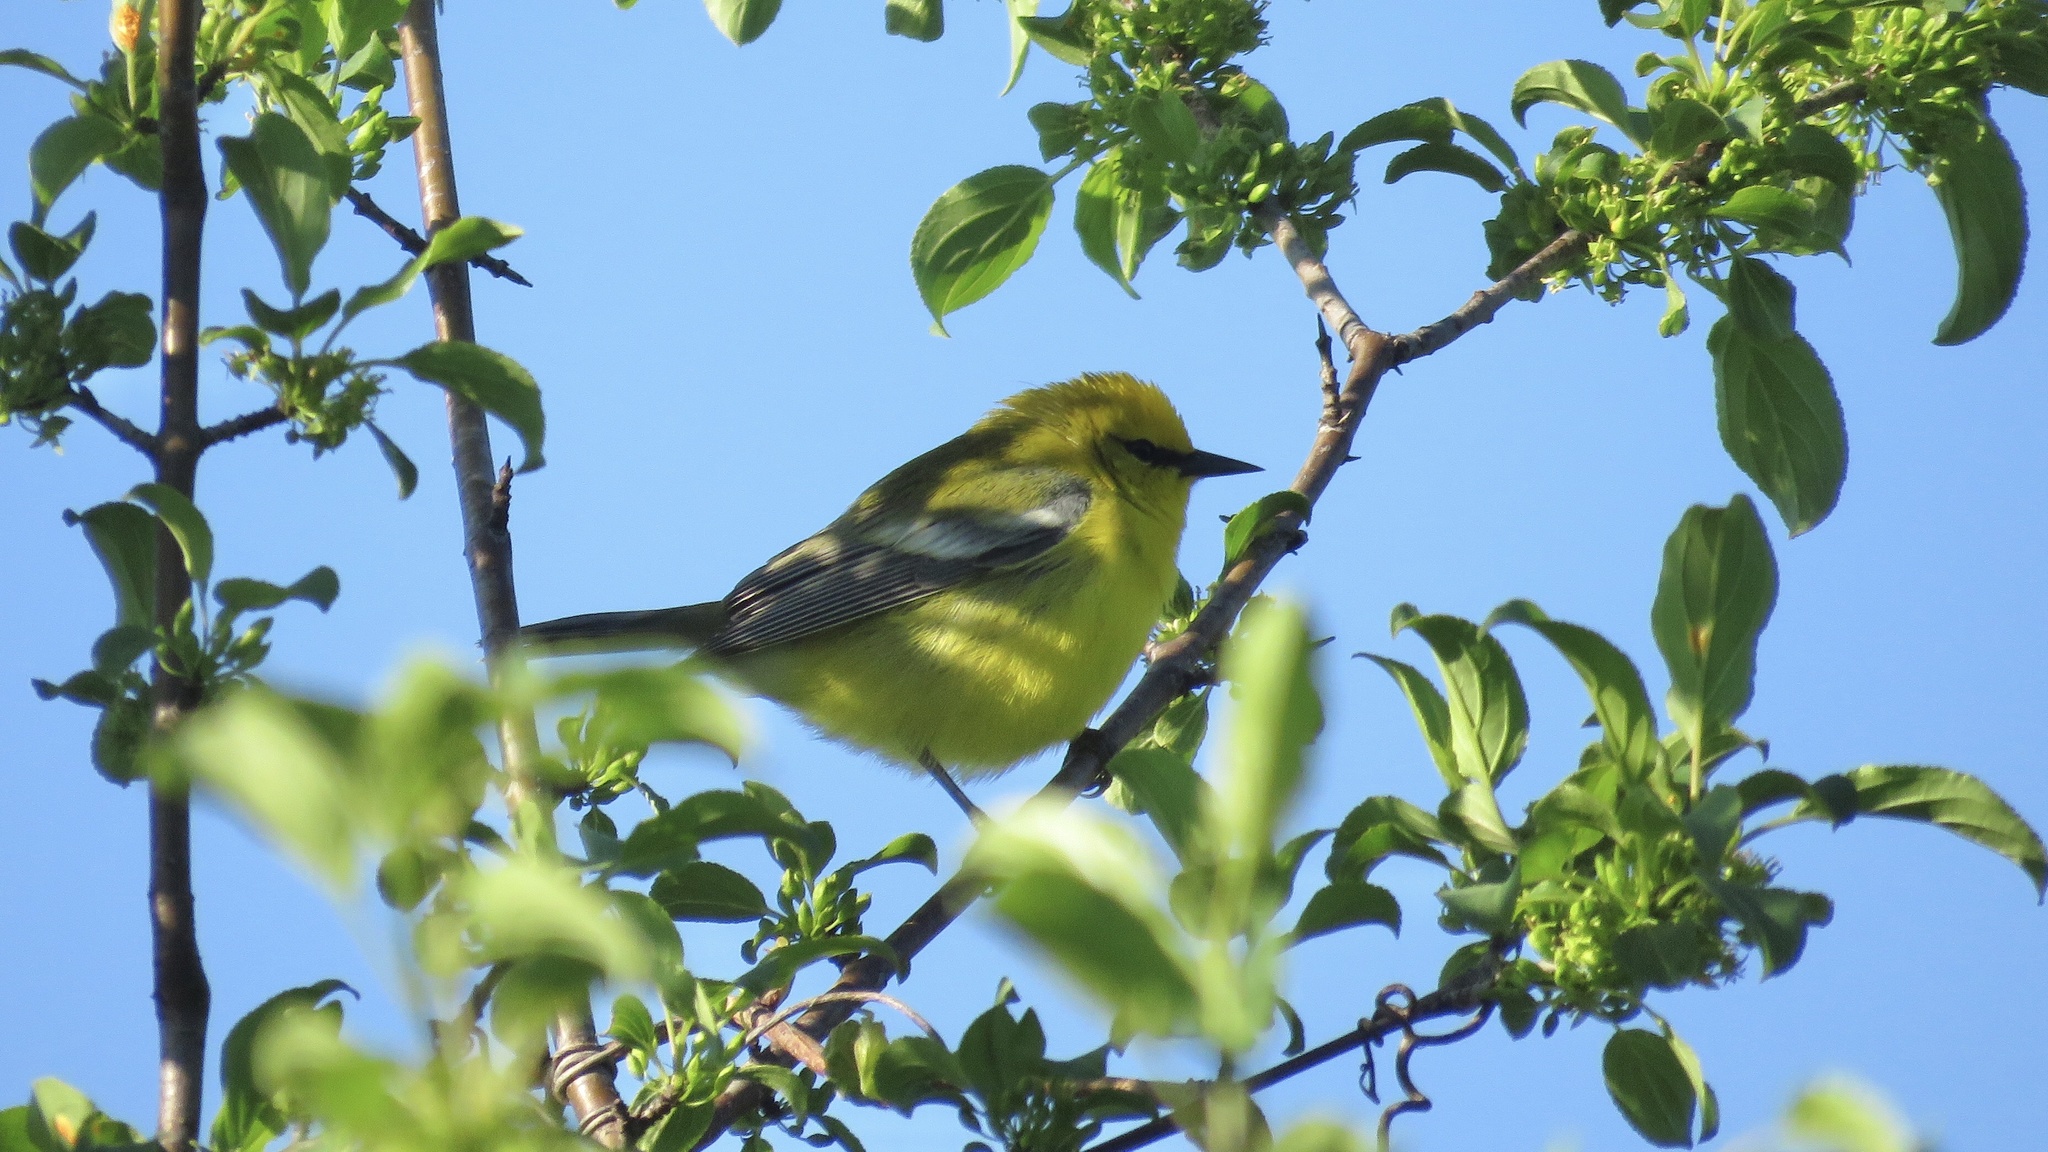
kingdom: Animalia
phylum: Chordata
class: Aves
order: Passeriformes
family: Parulidae
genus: Vermivora
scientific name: Vermivora cyanoptera
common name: Blue-winged warbler
